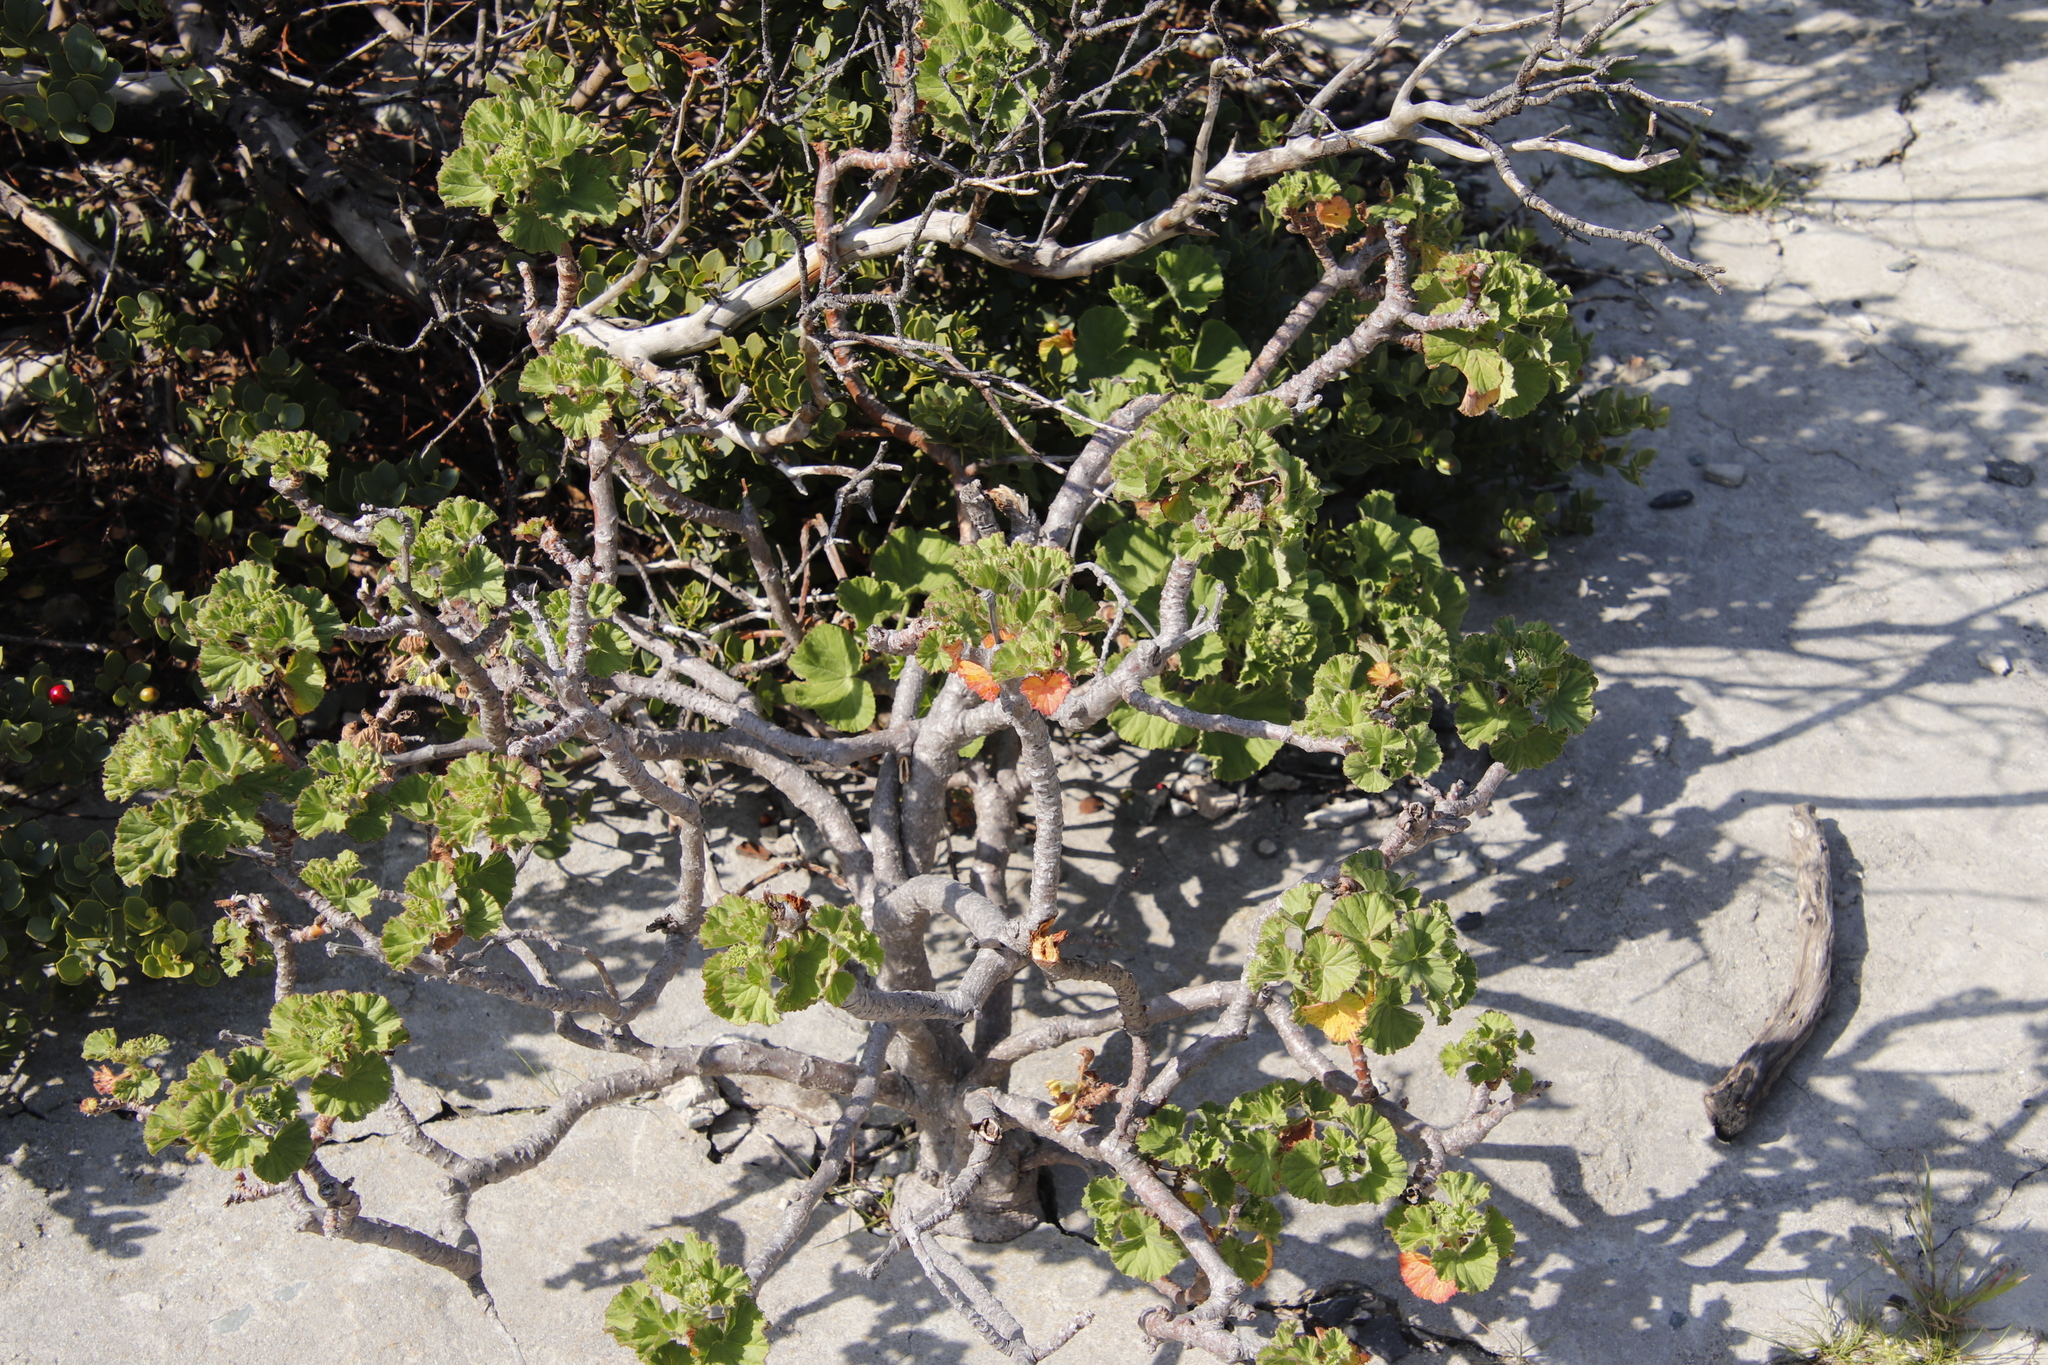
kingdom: Plantae
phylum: Tracheophyta
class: Magnoliopsida
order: Geraniales
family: Geraniaceae
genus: Pelargonium
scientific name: Pelargonium cucullatum
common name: Tree pelargonium
